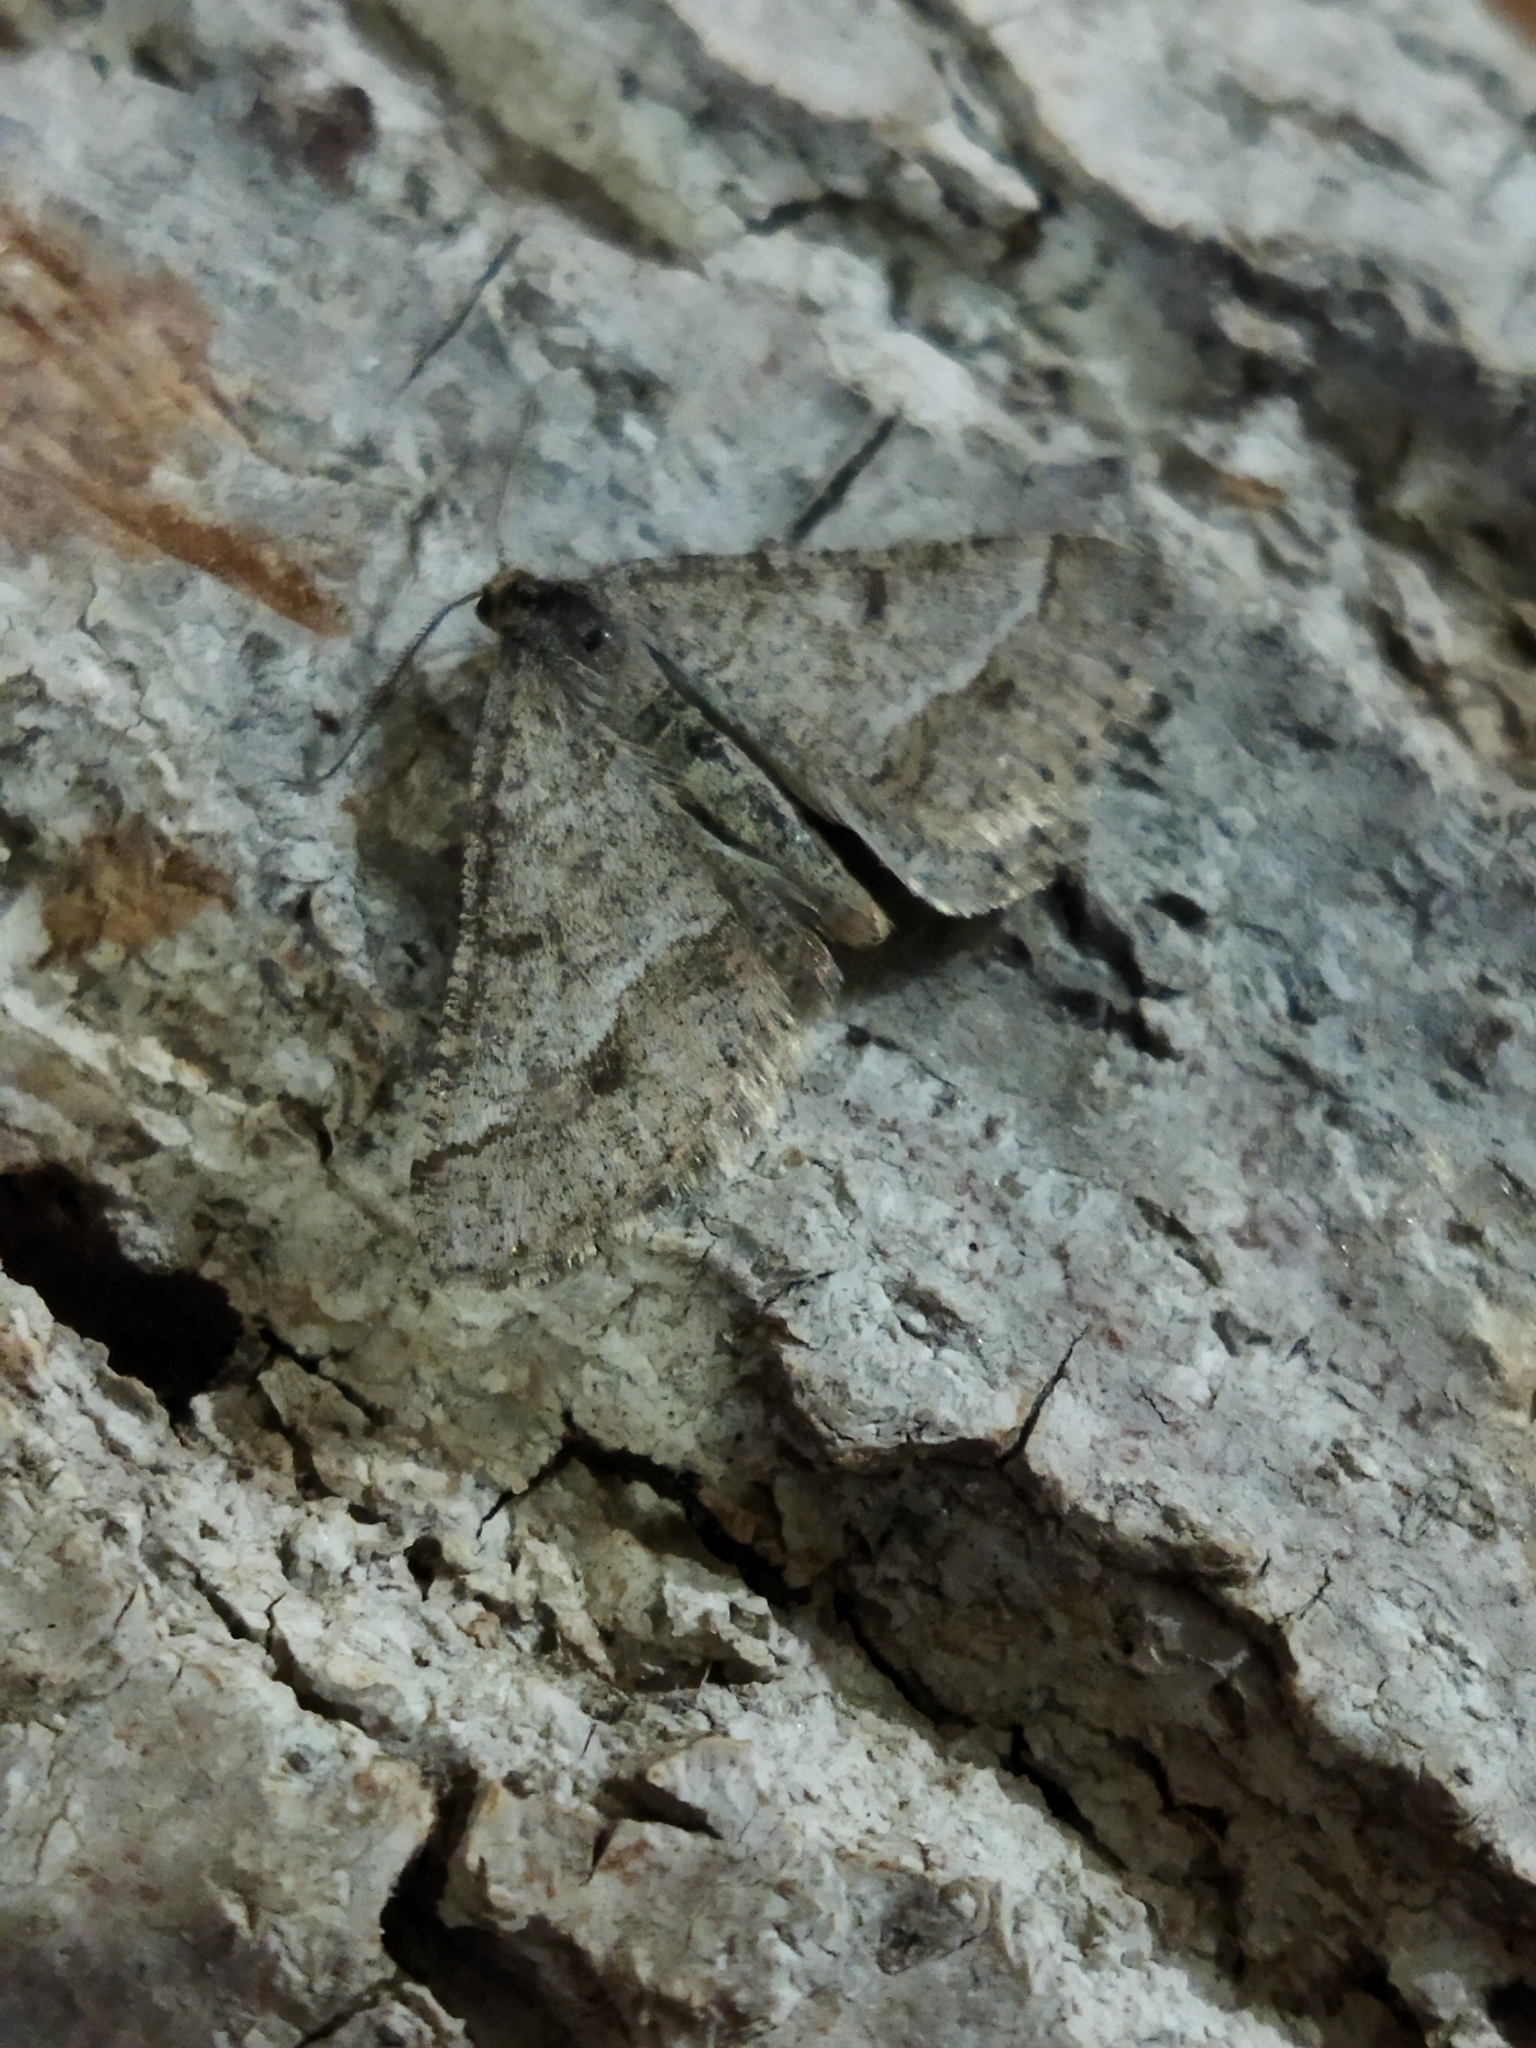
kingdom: Animalia
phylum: Arthropoda
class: Insecta
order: Lepidoptera
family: Geometridae
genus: Tephrina
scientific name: Tephrina murinaria
